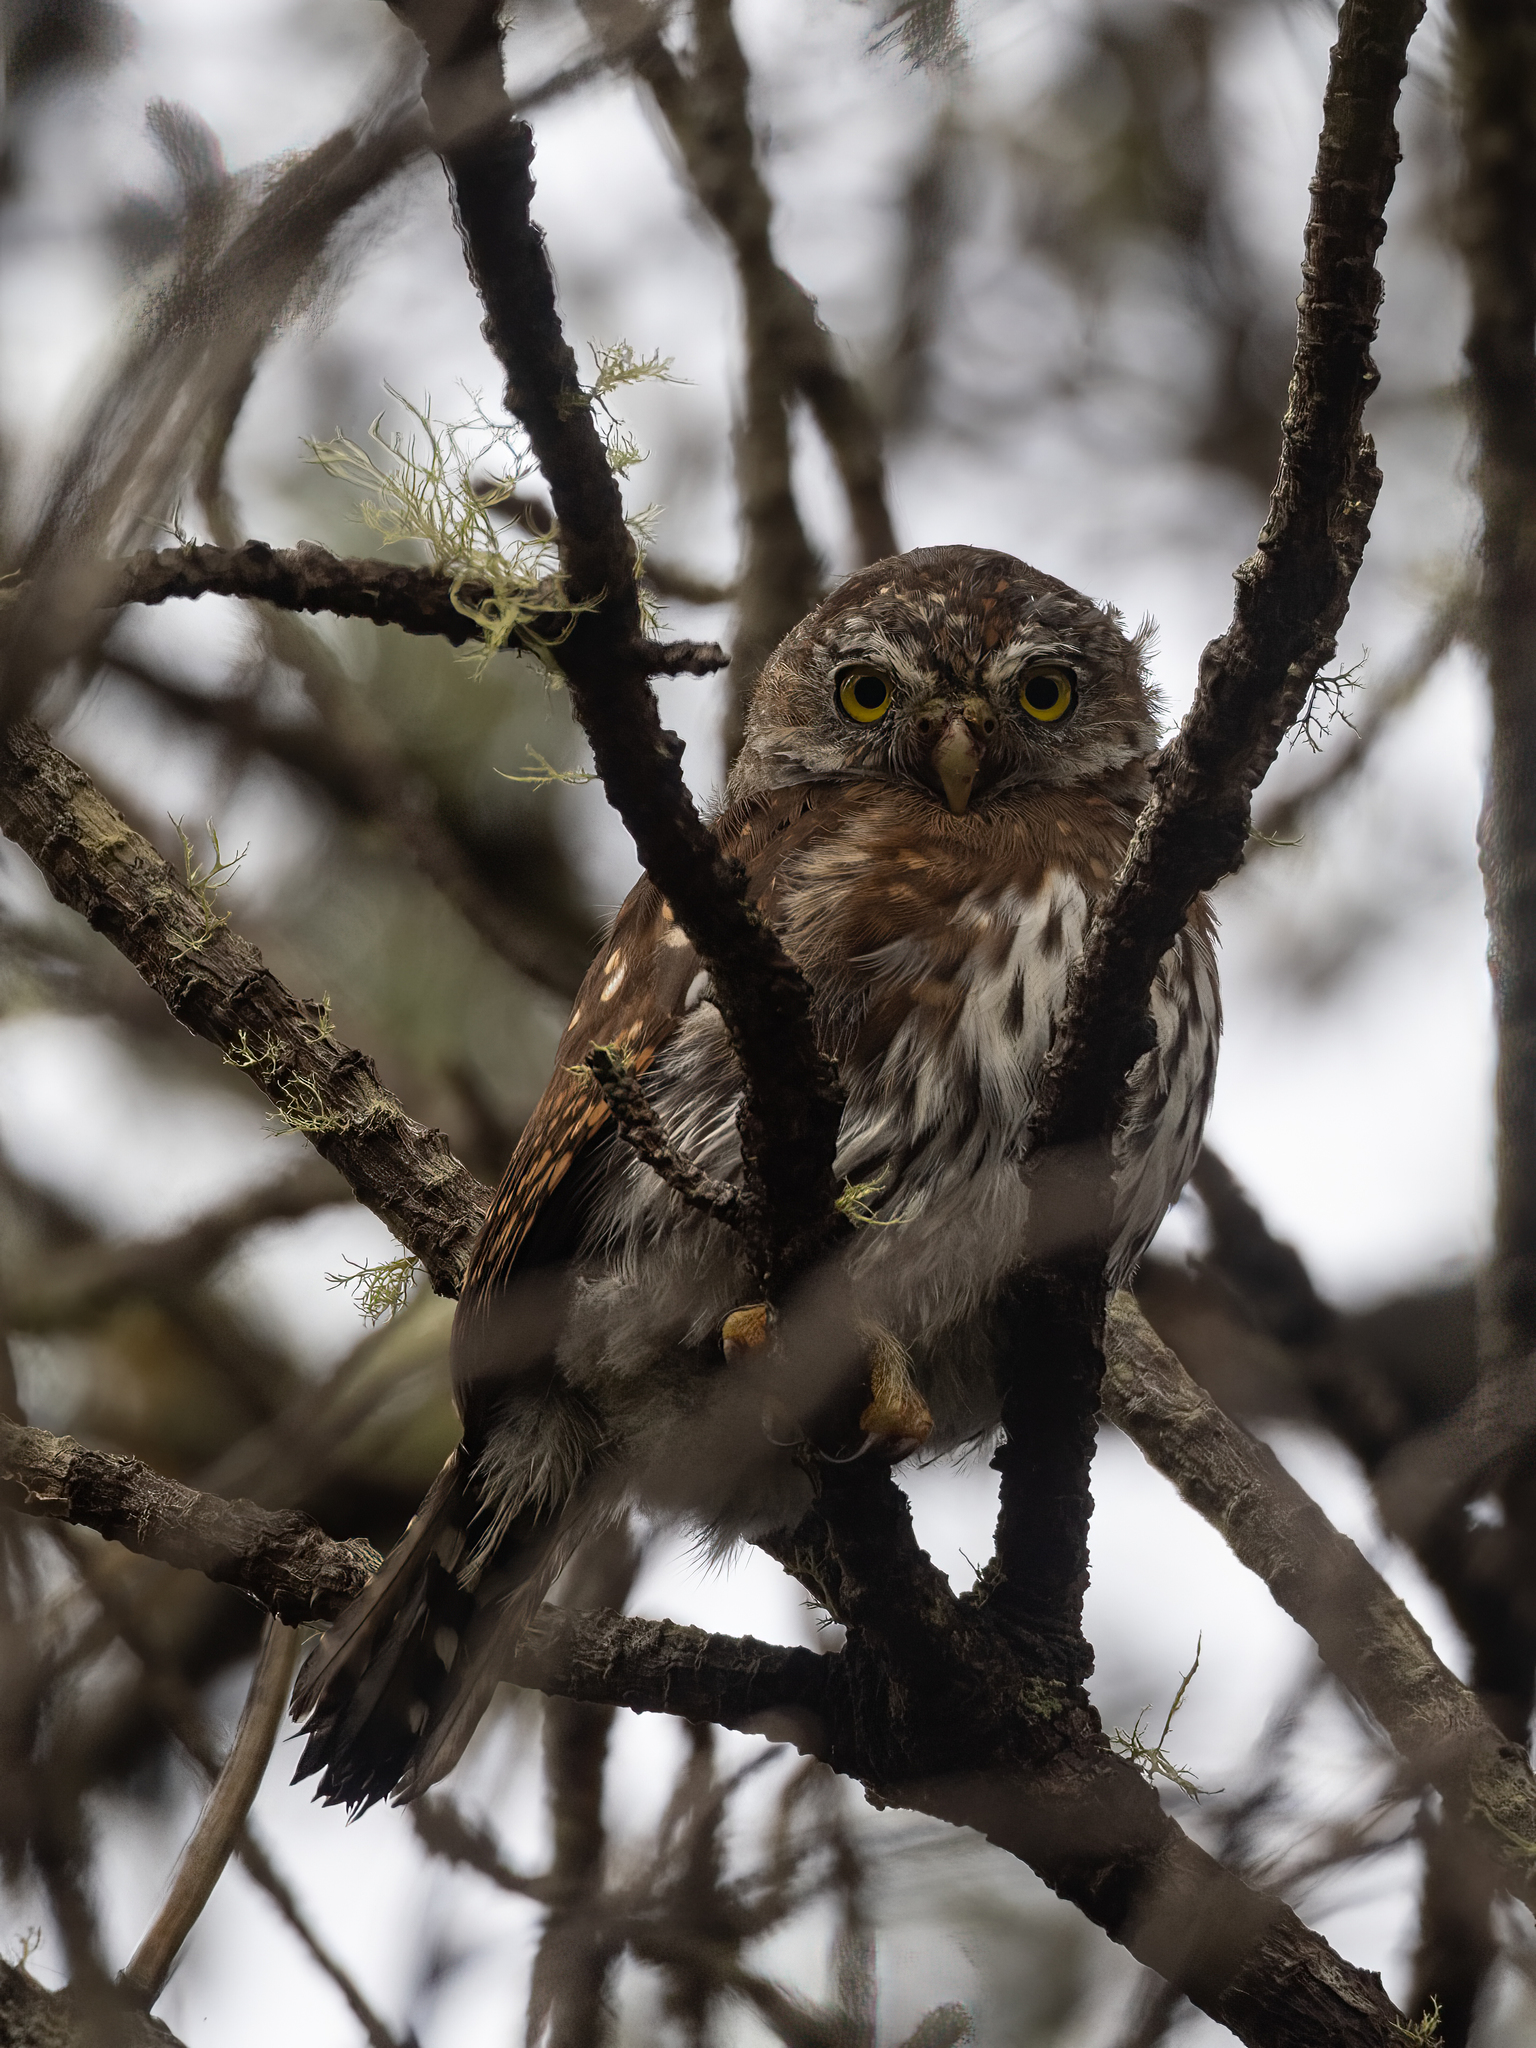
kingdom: Animalia
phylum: Chordata
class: Aves
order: Strigiformes
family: Strigidae
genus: Glaucidium
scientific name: Glaucidium gnoma
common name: Northern pygmy-owl
